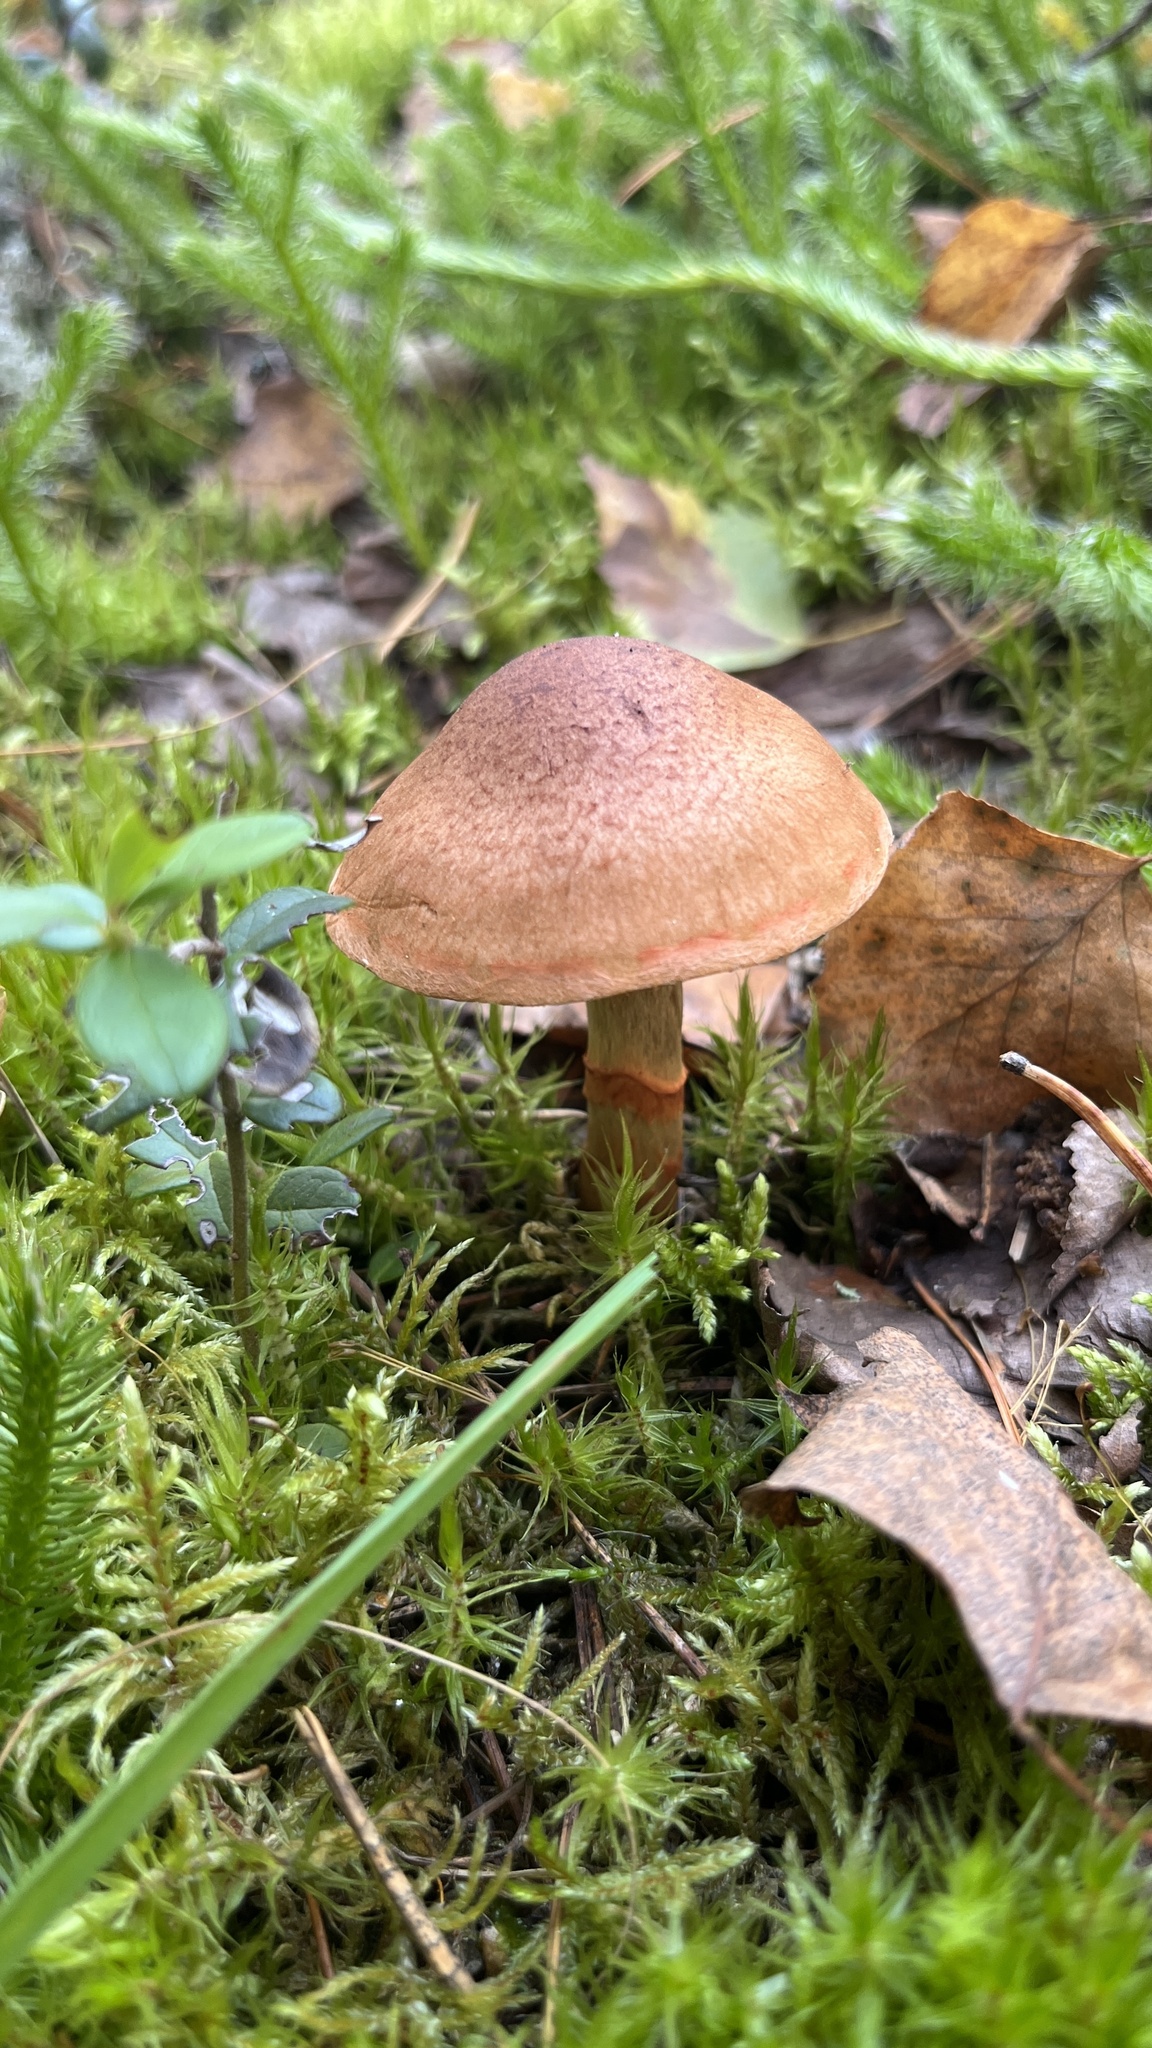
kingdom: Fungi
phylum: Basidiomycota
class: Agaricomycetes
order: Agaricales
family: Cortinariaceae
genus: Cortinarius
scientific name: Cortinarius armillatus
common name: Red banded webcap
